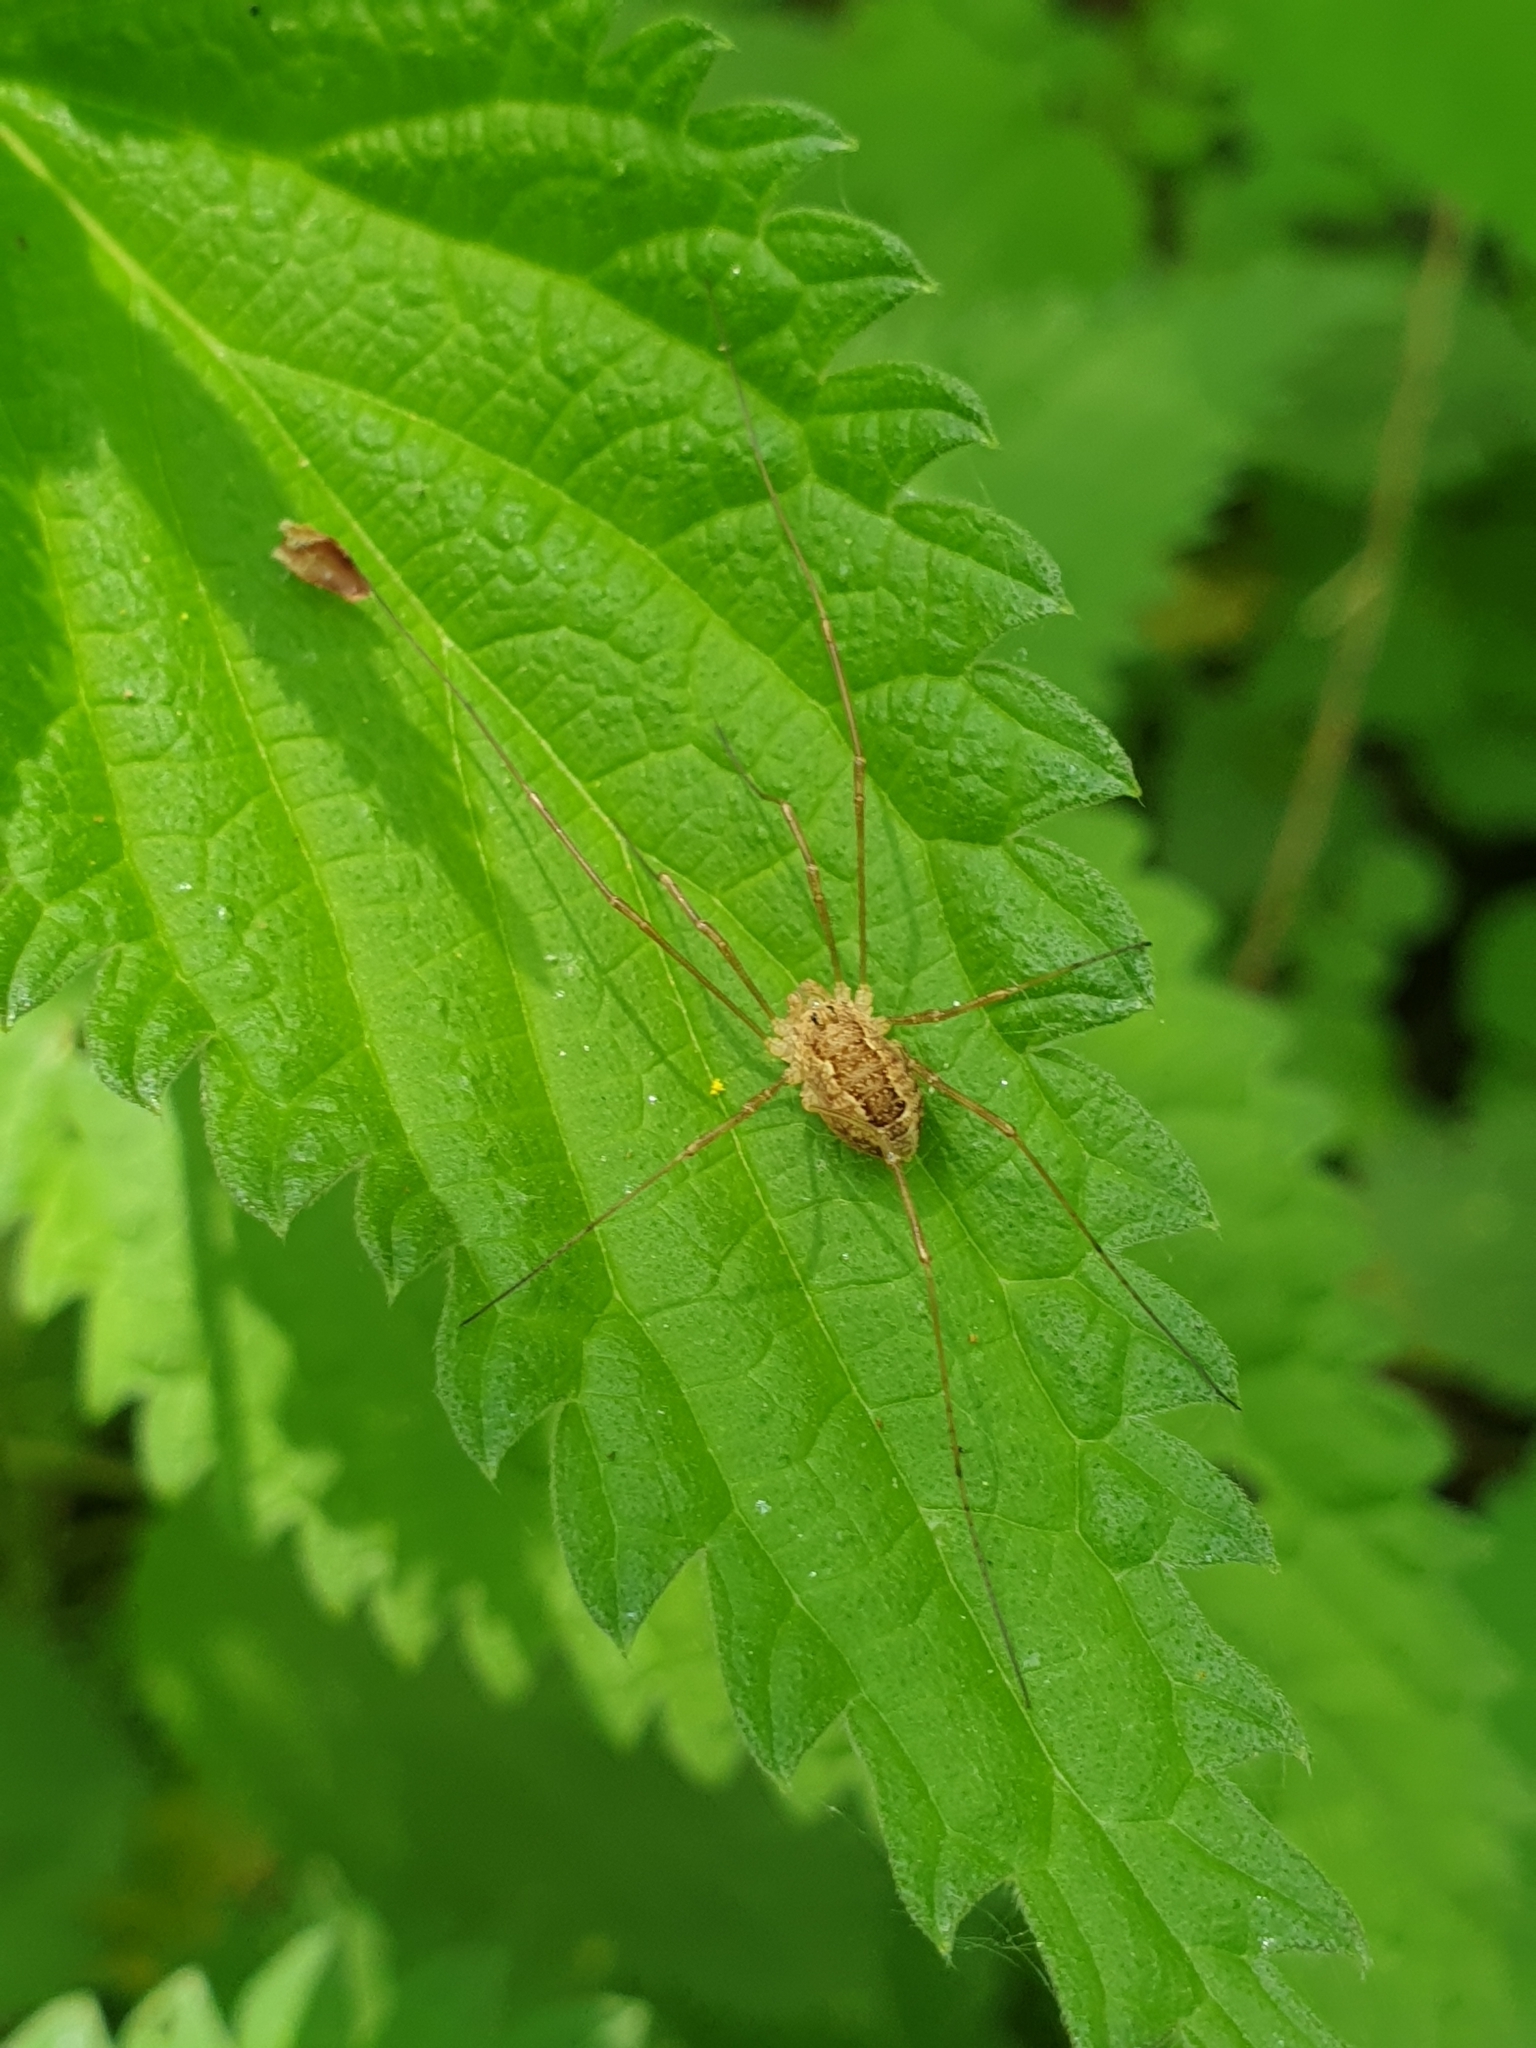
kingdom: Animalia
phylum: Arthropoda
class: Arachnida
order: Opiliones
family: Phalangiidae
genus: Rilaena
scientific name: Rilaena triangularis
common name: Spring harvestman
